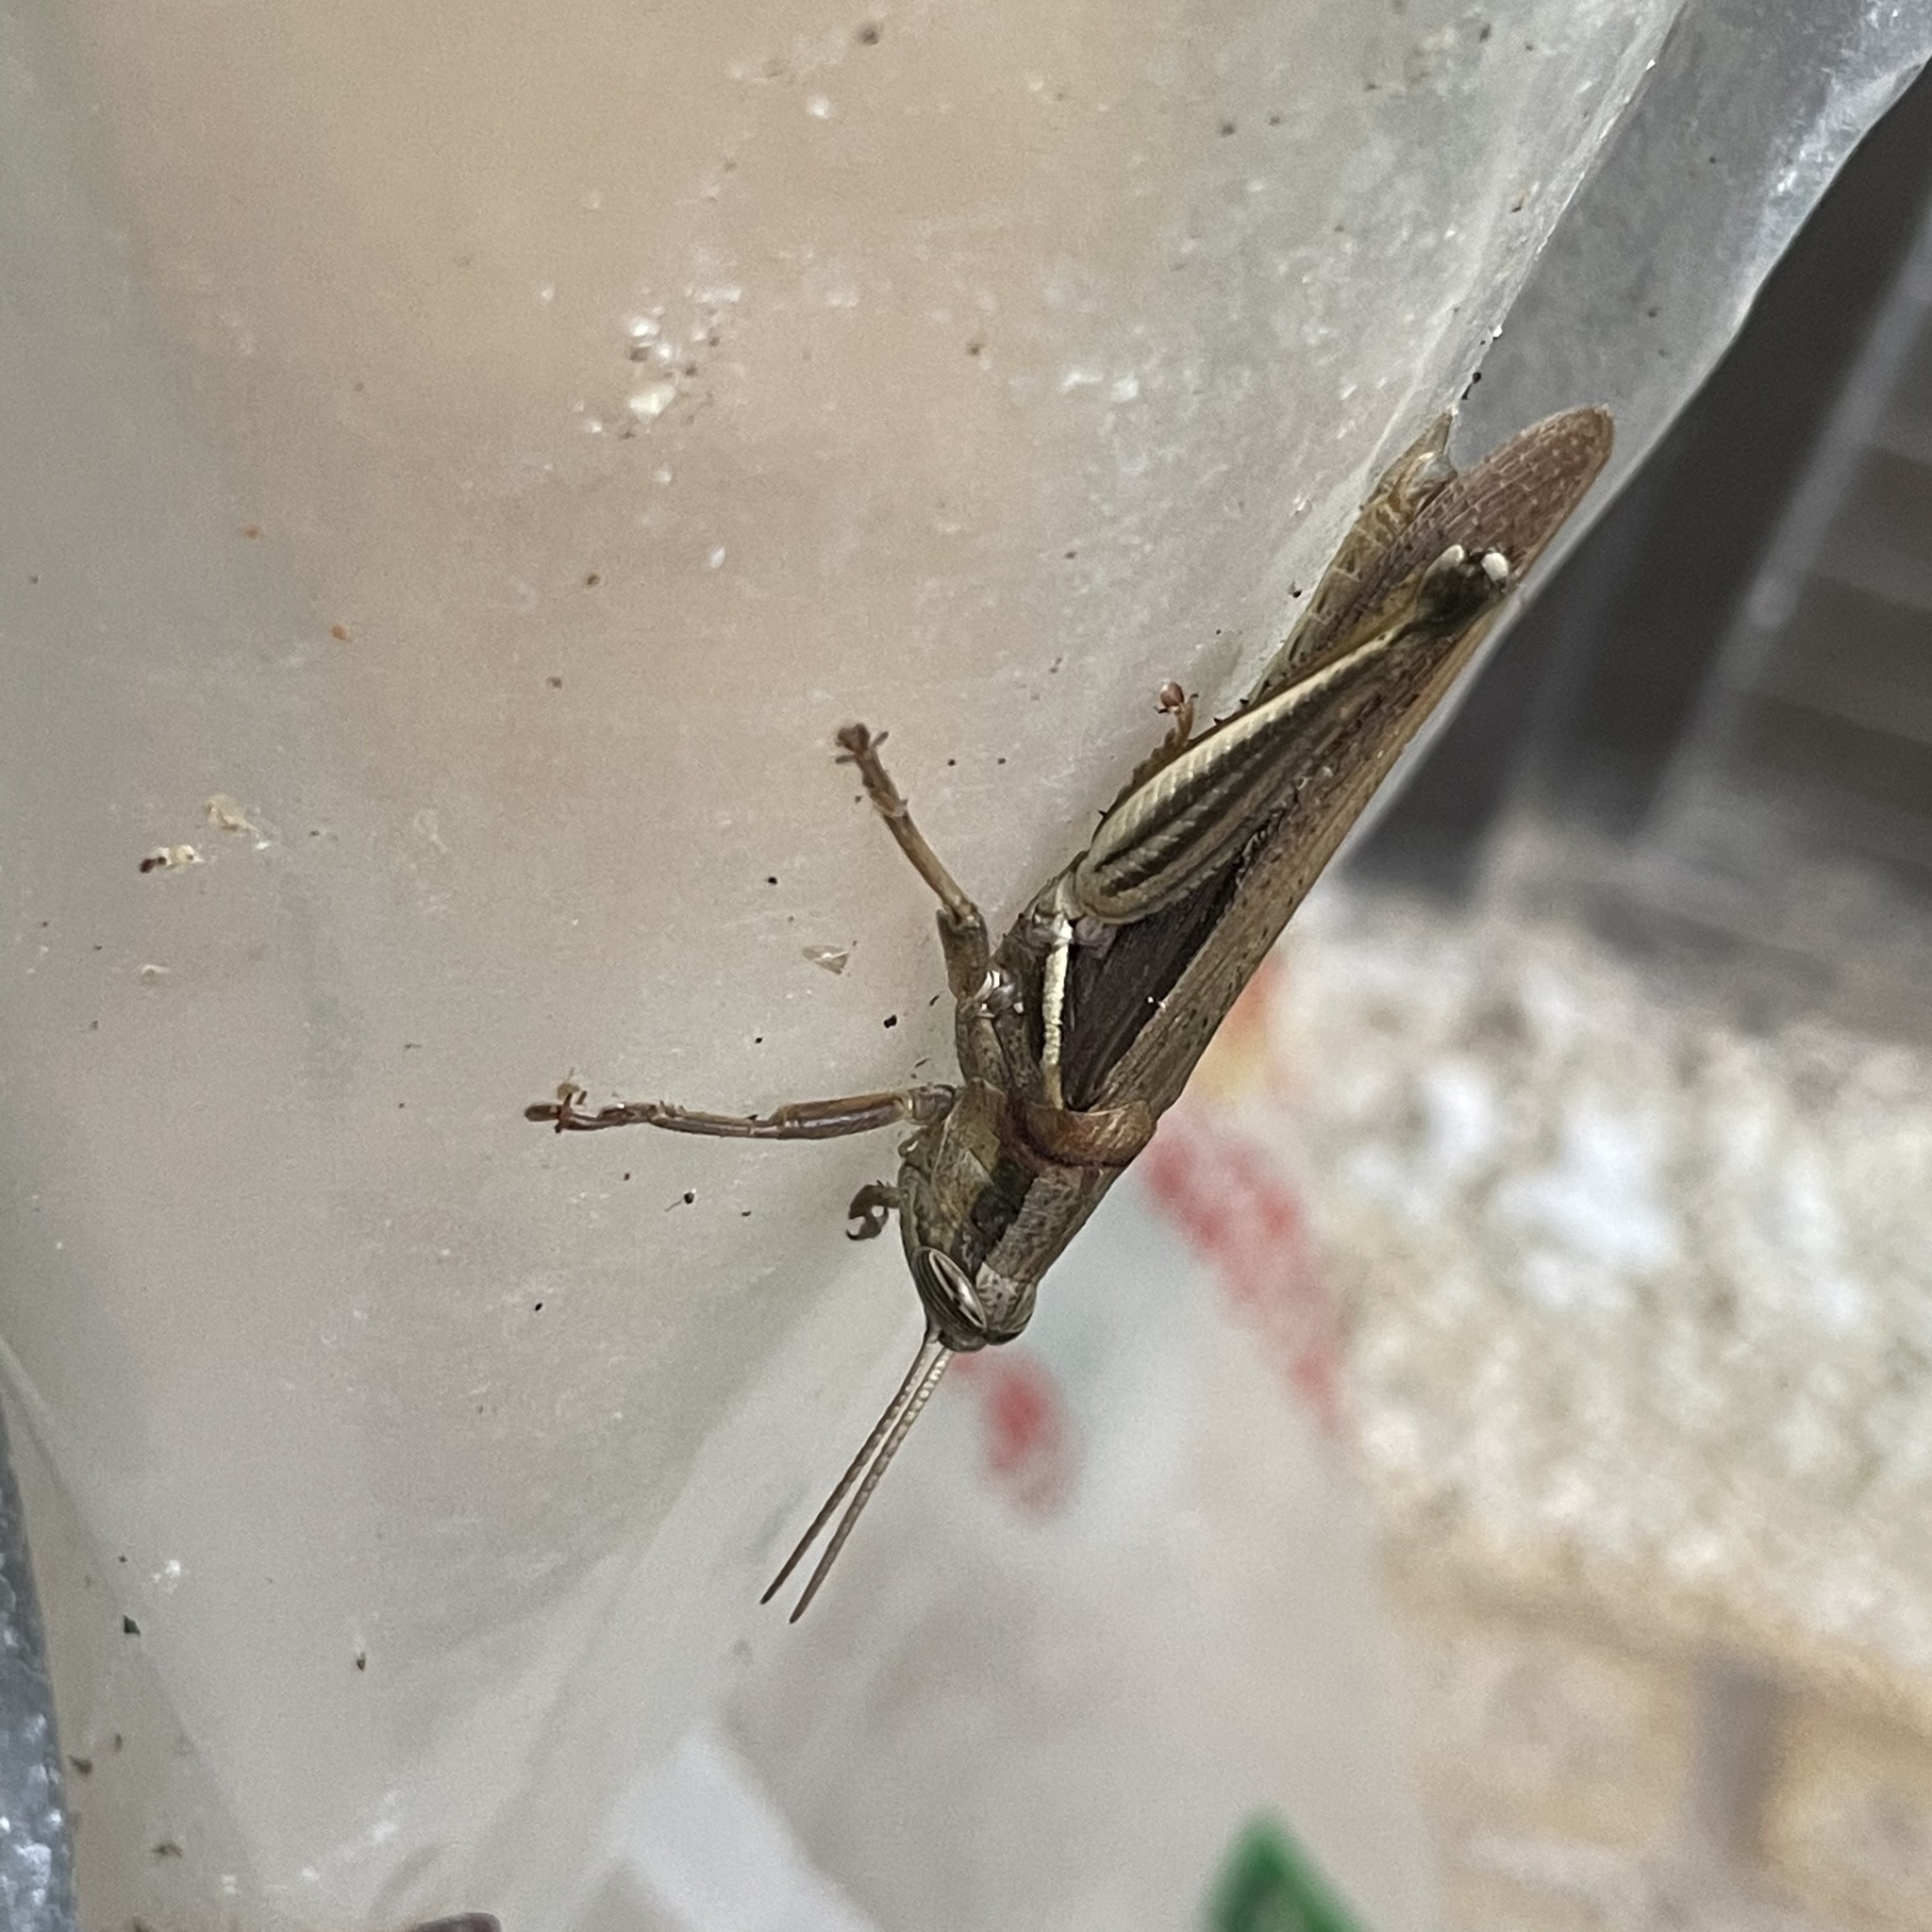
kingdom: Animalia
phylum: Arthropoda
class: Insecta
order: Orthoptera
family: Acrididae
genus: Stenocatantops
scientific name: Stenocatantops mistshenkoi
